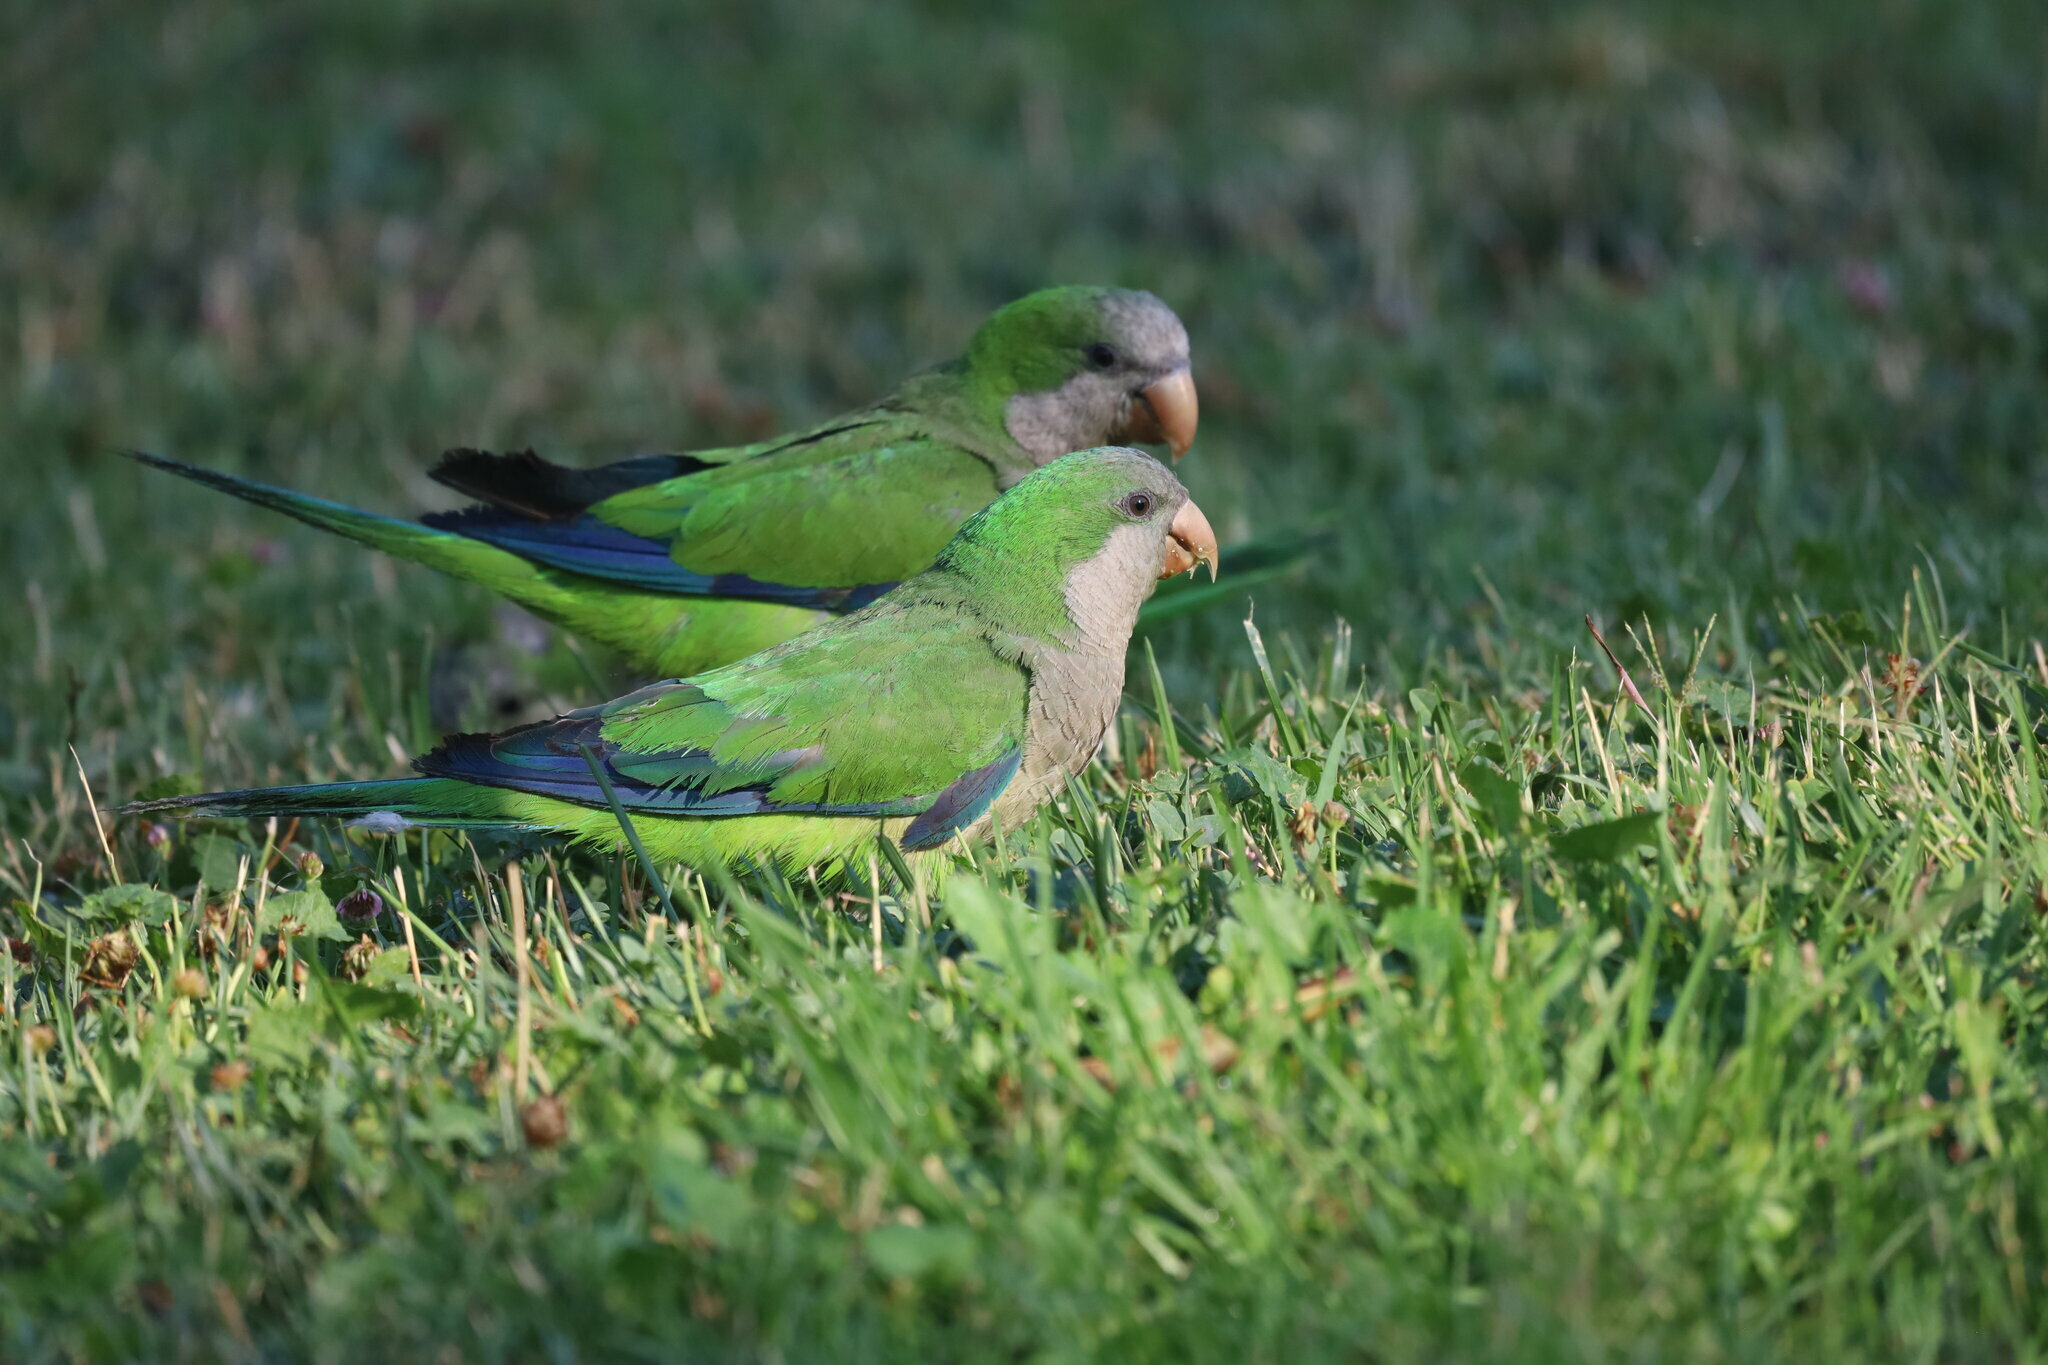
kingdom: Animalia
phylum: Chordata
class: Aves
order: Psittaciformes
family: Psittacidae
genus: Myiopsitta
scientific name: Myiopsitta monachus
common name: Monk parakeet
